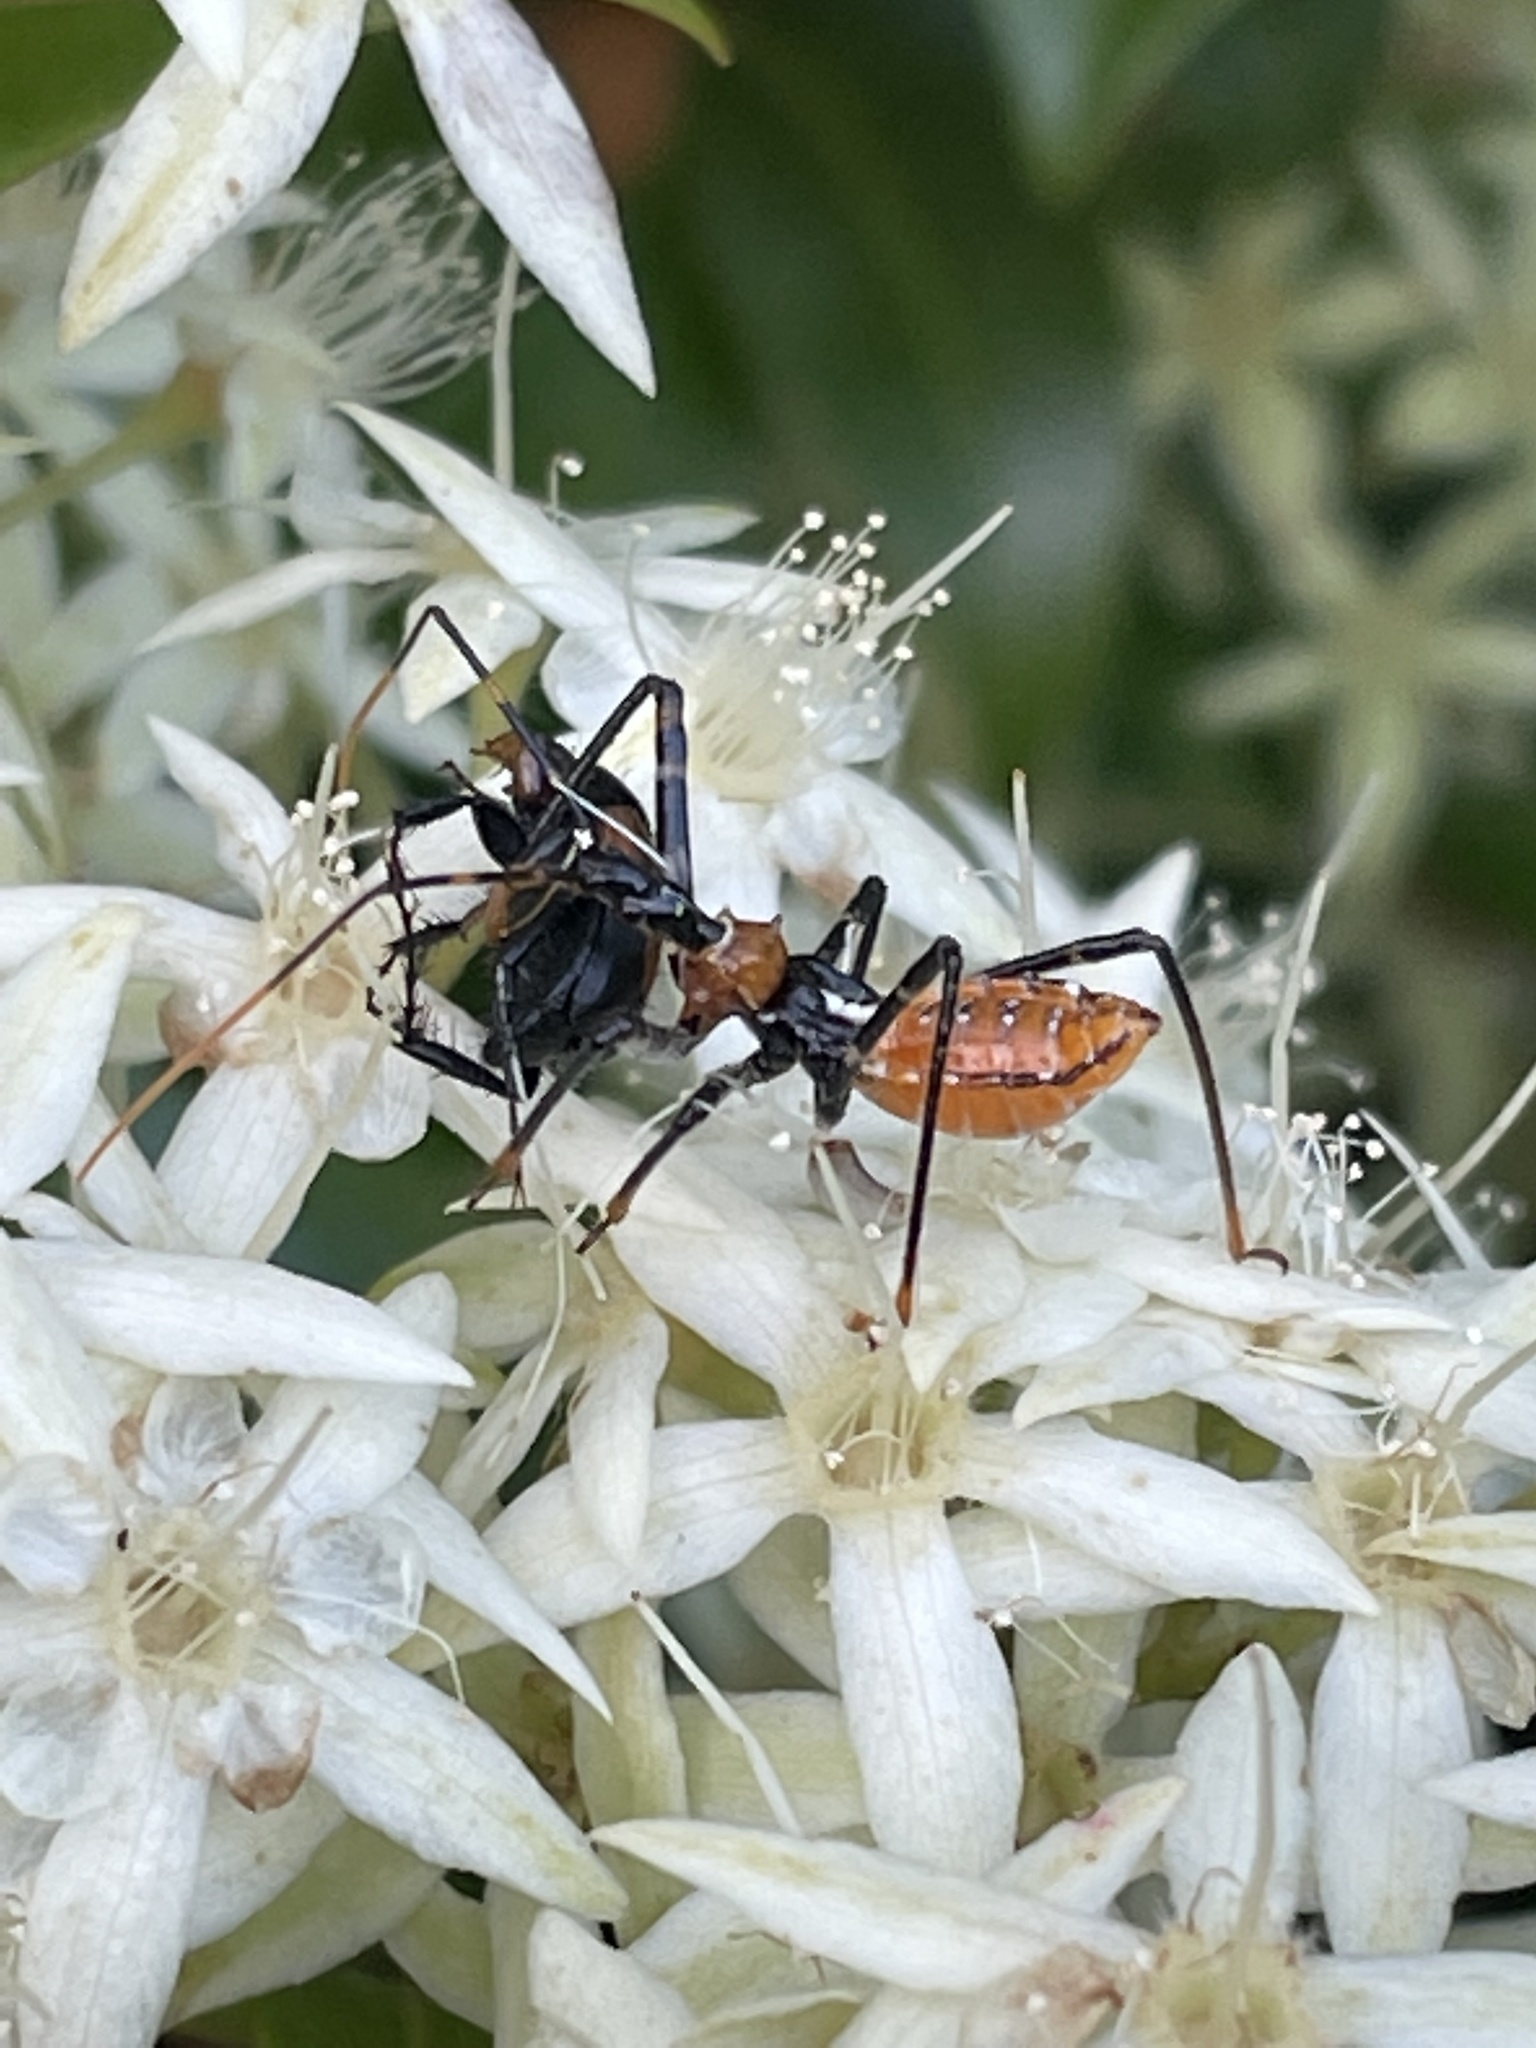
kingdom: Animalia
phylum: Arthropoda
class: Insecta
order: Hemiptera
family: Reduviidae
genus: Pristhesancus
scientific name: Pristhesancus plagipennis
